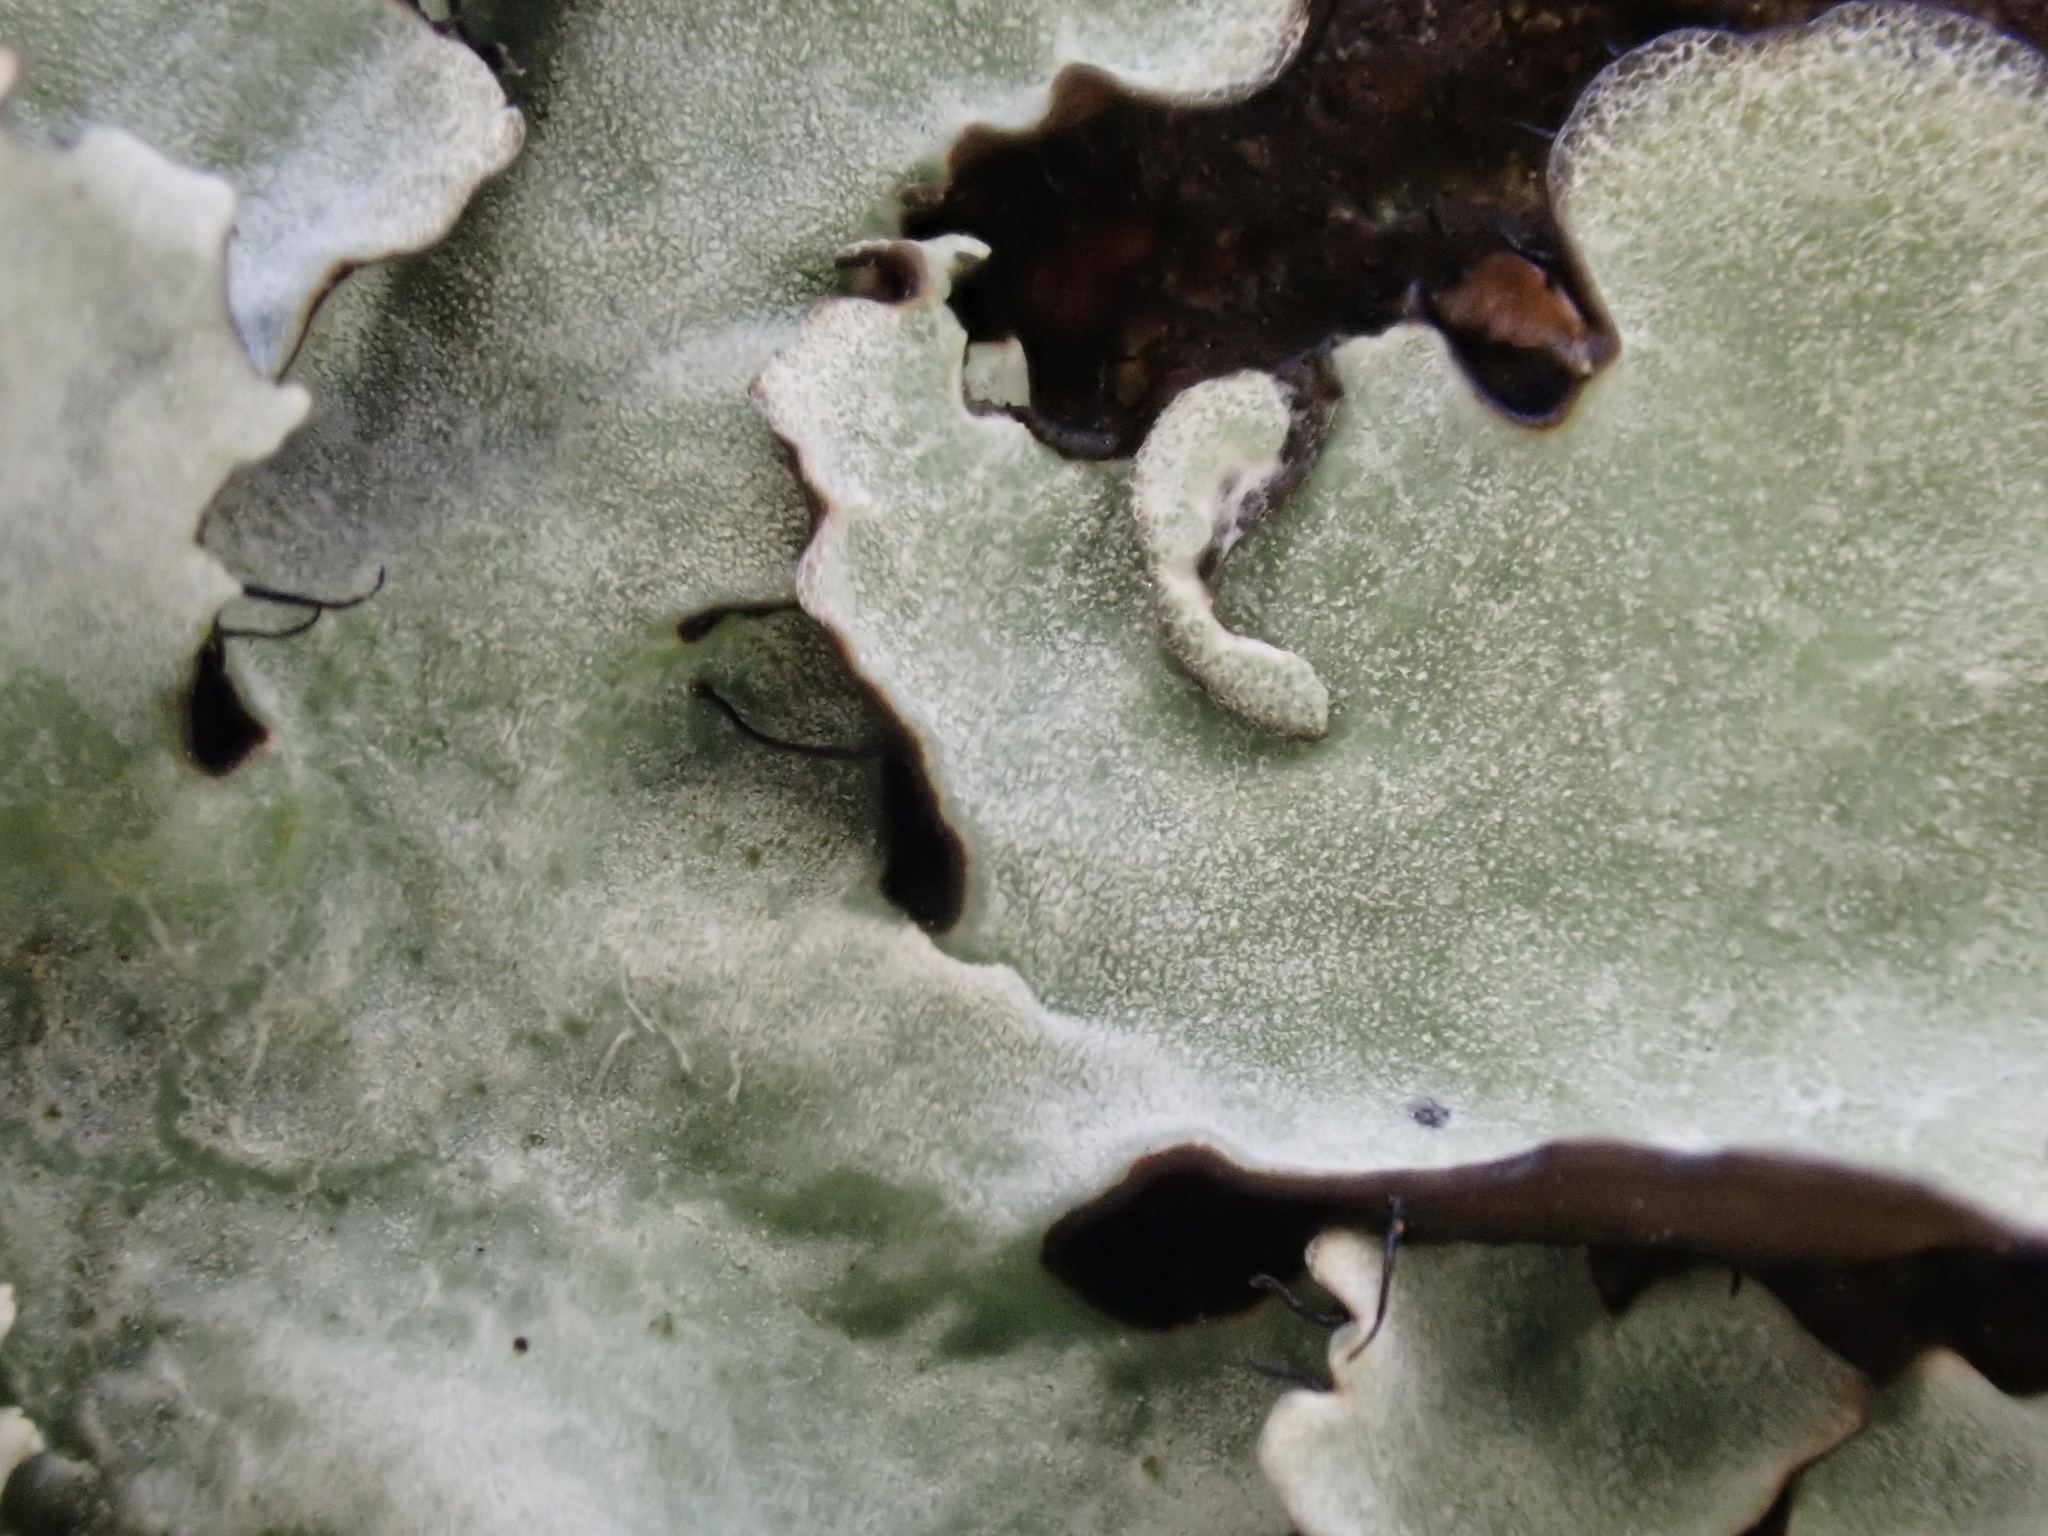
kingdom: Fungi
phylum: Ascomycota
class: Lecanoromycetes
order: Lecanorales
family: Parmeliaceae
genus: Parmotrema
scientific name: Parmotrema reticulatum
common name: Black sheet lichen
